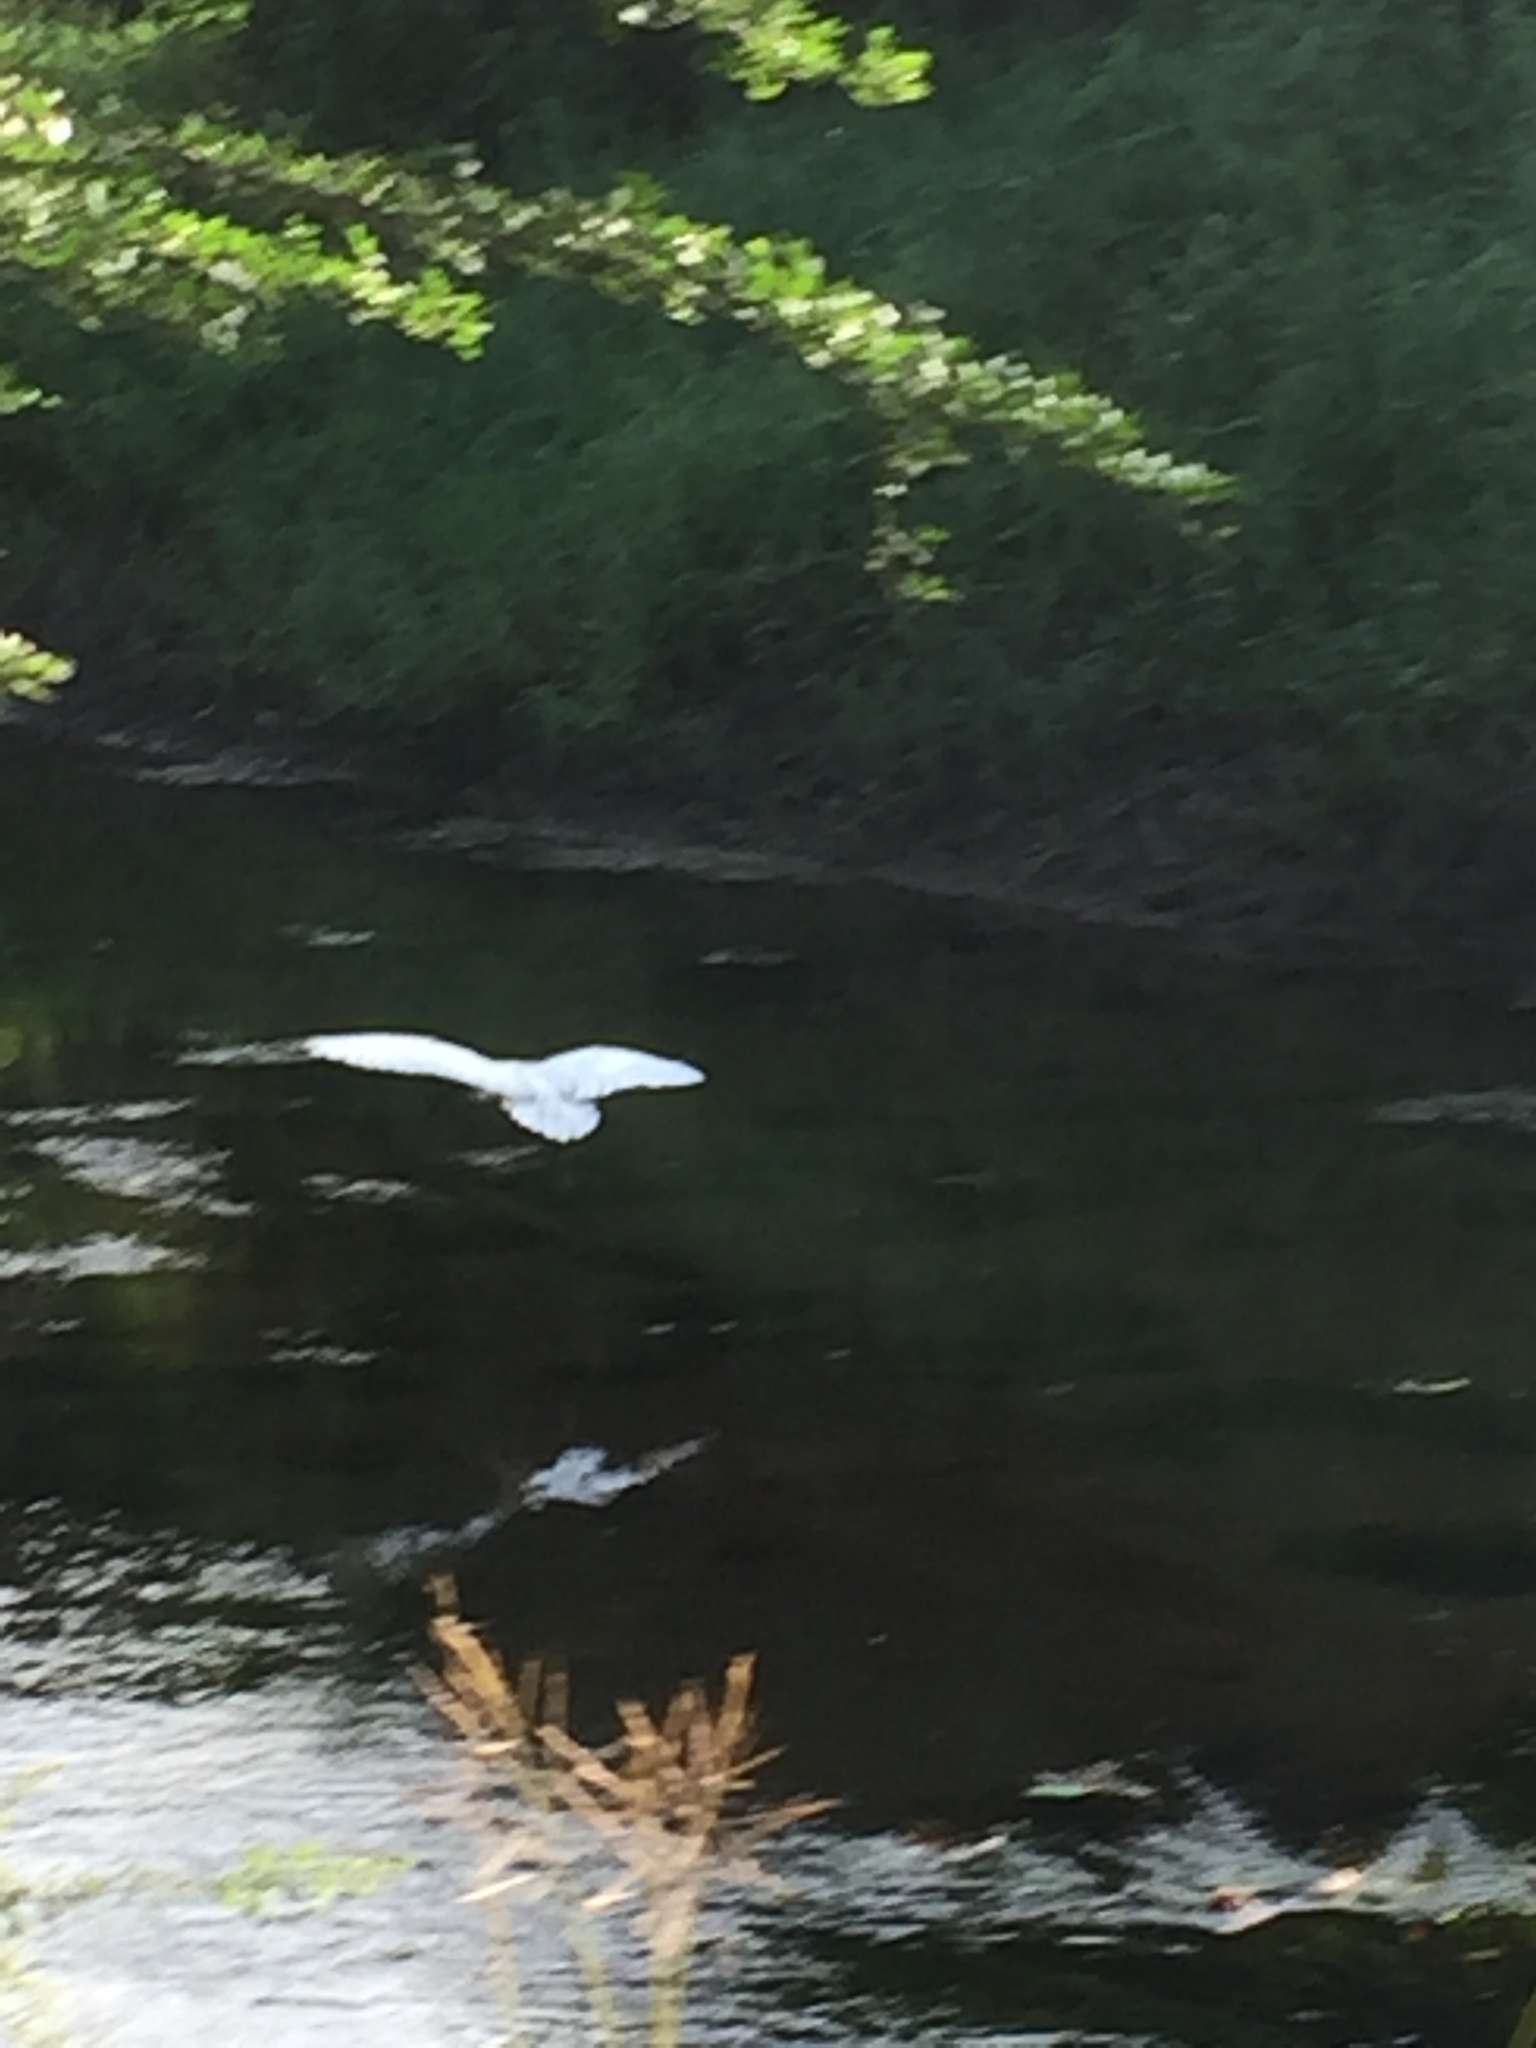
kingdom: Animalia
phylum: Chordata
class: Aves
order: Pelecaniformes
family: Threskiornithidae
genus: Threskiornis
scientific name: Threskiornis melanocephalus
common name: Black-headed ibis
